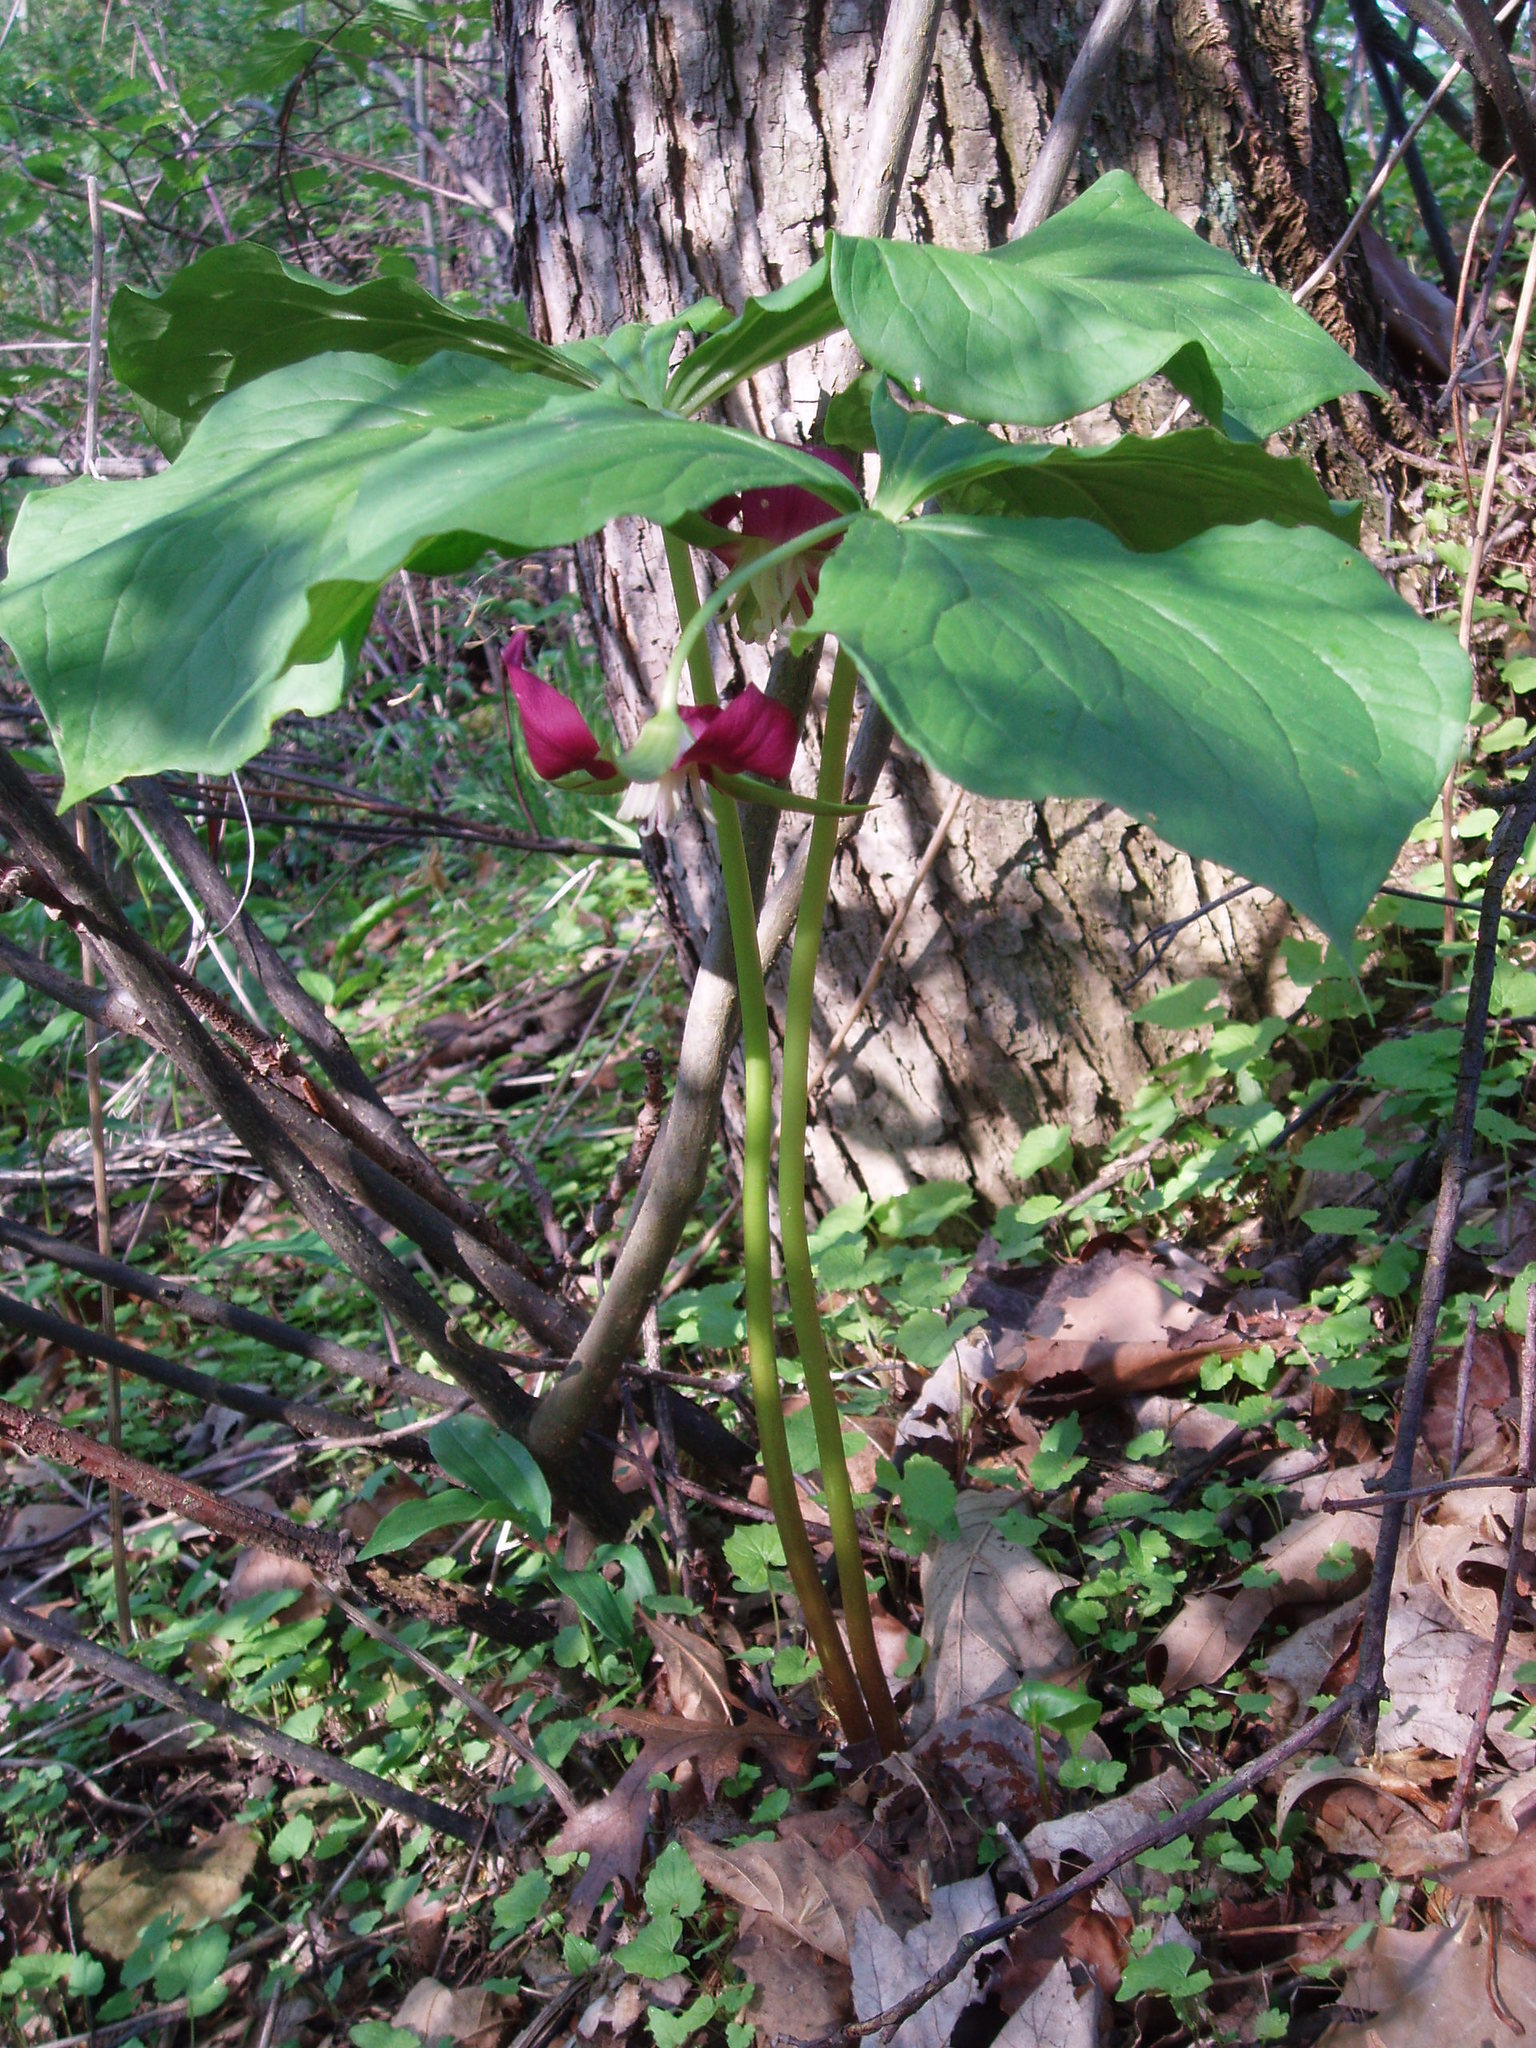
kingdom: Plantae
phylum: Tracheophyta
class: Liliopsida
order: Liliales
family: Melanthiaceae
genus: Trillium
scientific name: Trillium flexipes
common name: Drooping trillium
